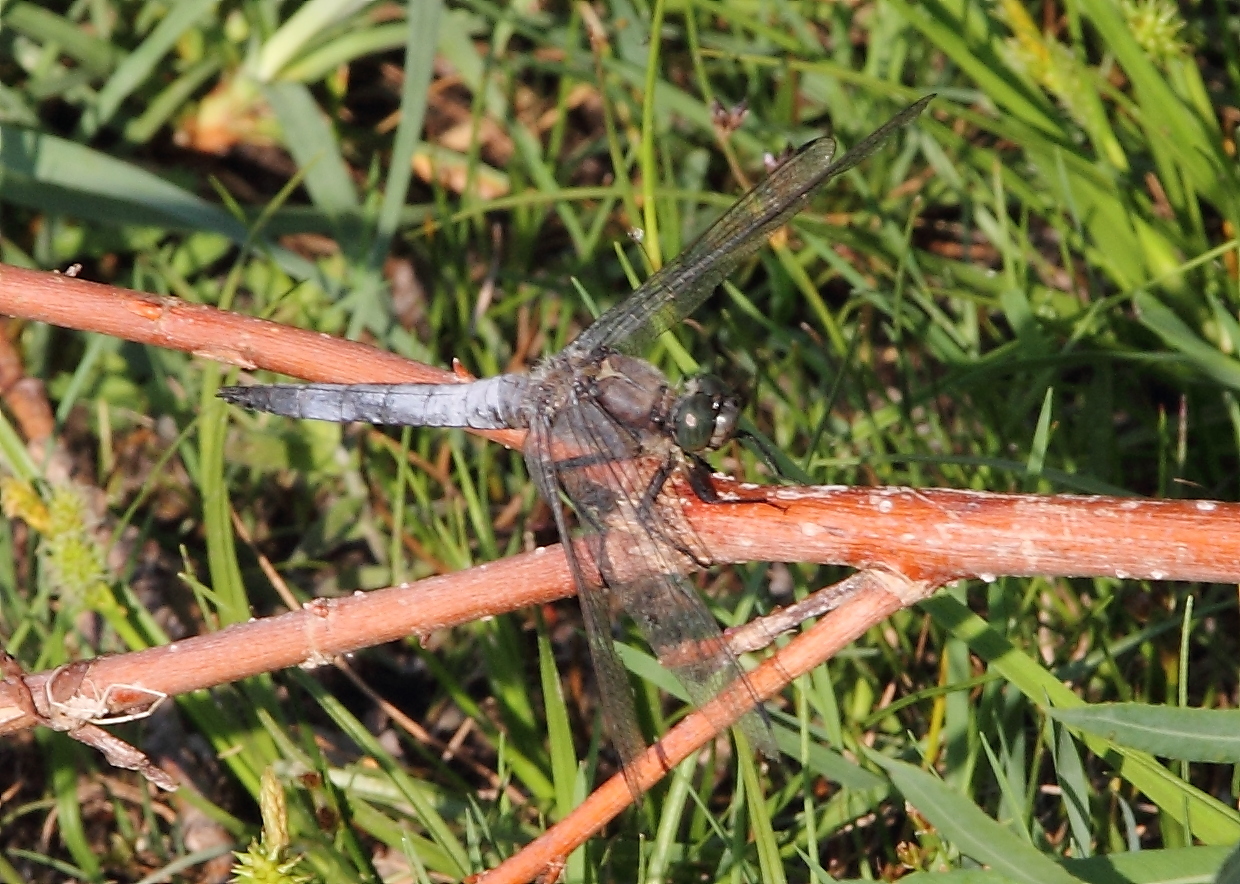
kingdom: Animalia
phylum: Arthropoda
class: Insecta
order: Odonata
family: Libellulidae
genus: Orthetrum
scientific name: Orthetrum cancellatum
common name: Black-tailed skimmer
